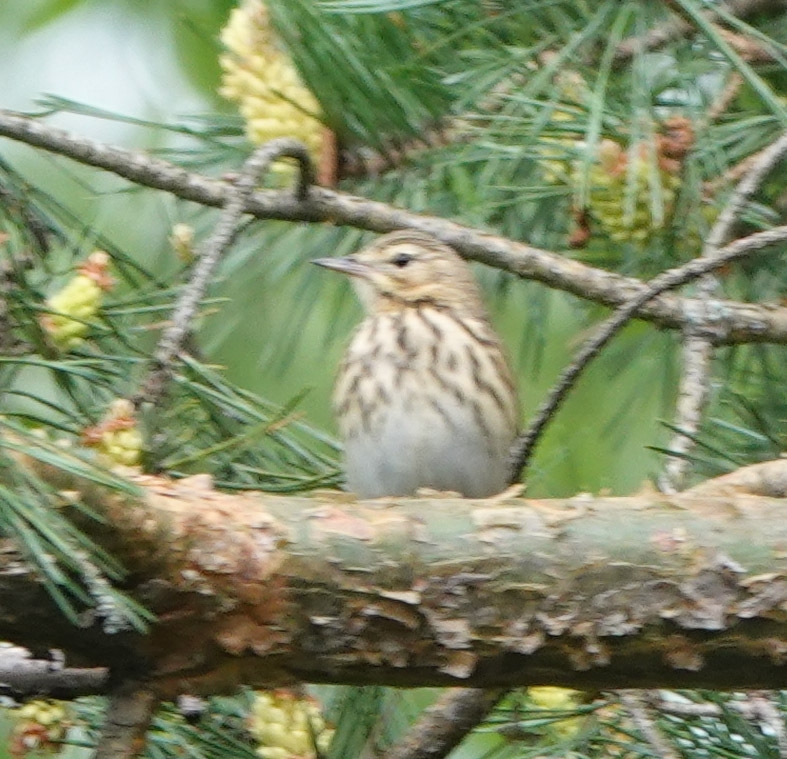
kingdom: Animalia
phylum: Chordata
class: Aves
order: Passeriformes
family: Motacillidae
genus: Anthus
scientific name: Anthus trivialis
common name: Tree pipit
